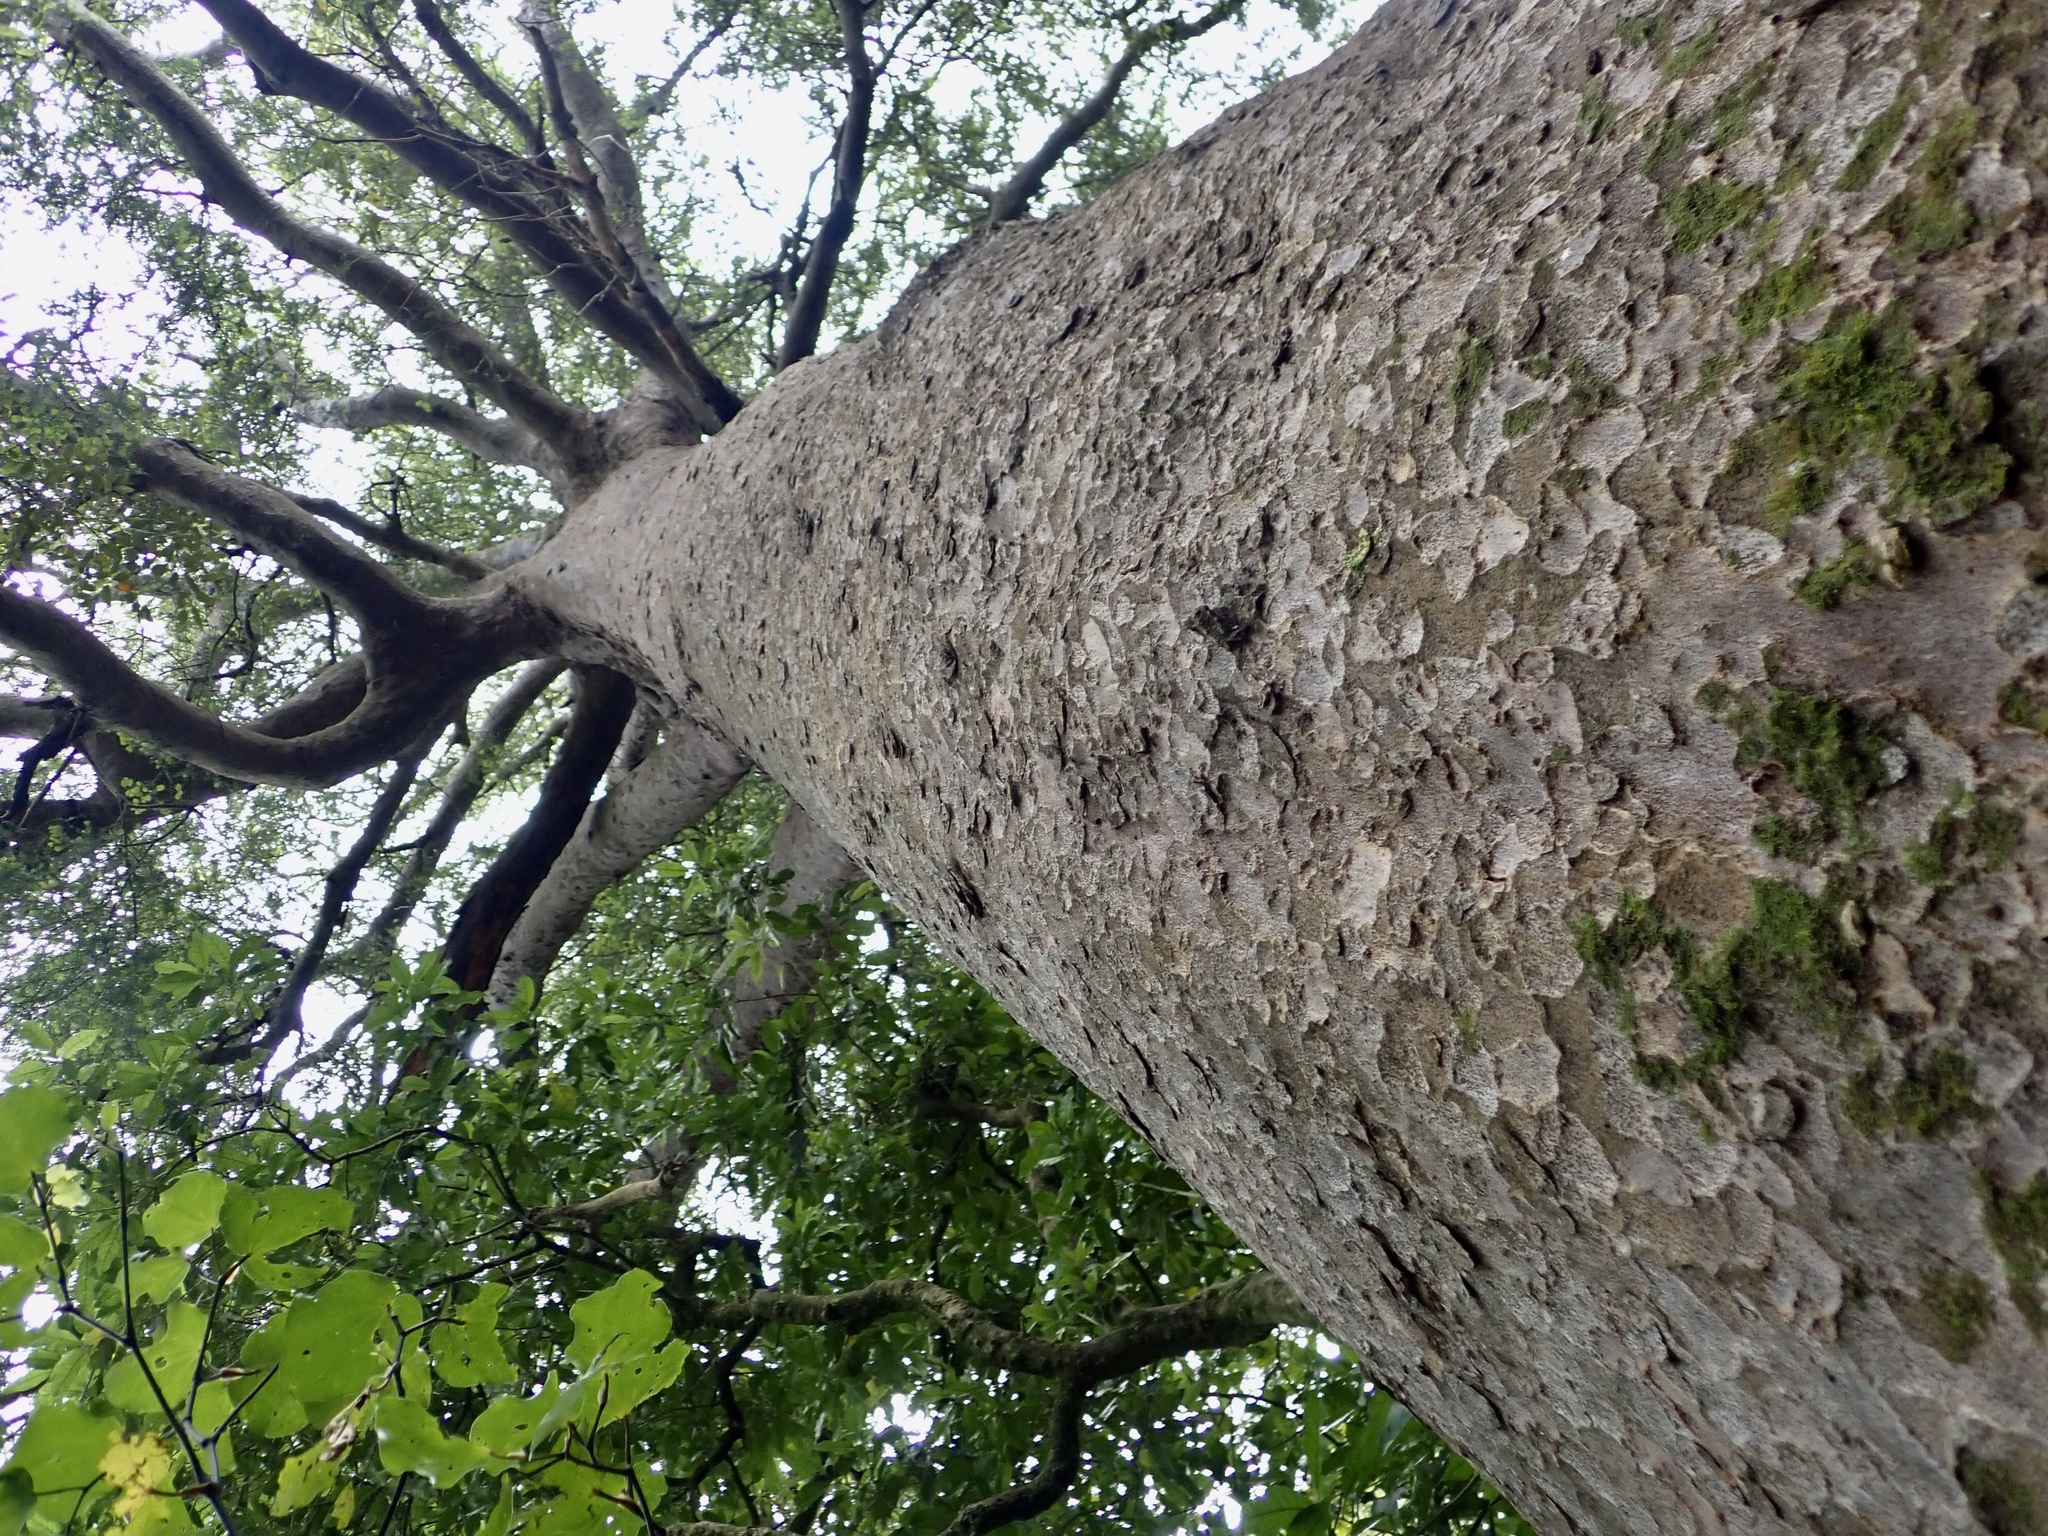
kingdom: Plantae
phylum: Tracheophyta
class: Pinopsida
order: Pinales
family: Podocarpaceae
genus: Prumnopitys
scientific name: Prumnopitys taxifolia
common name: Matai
